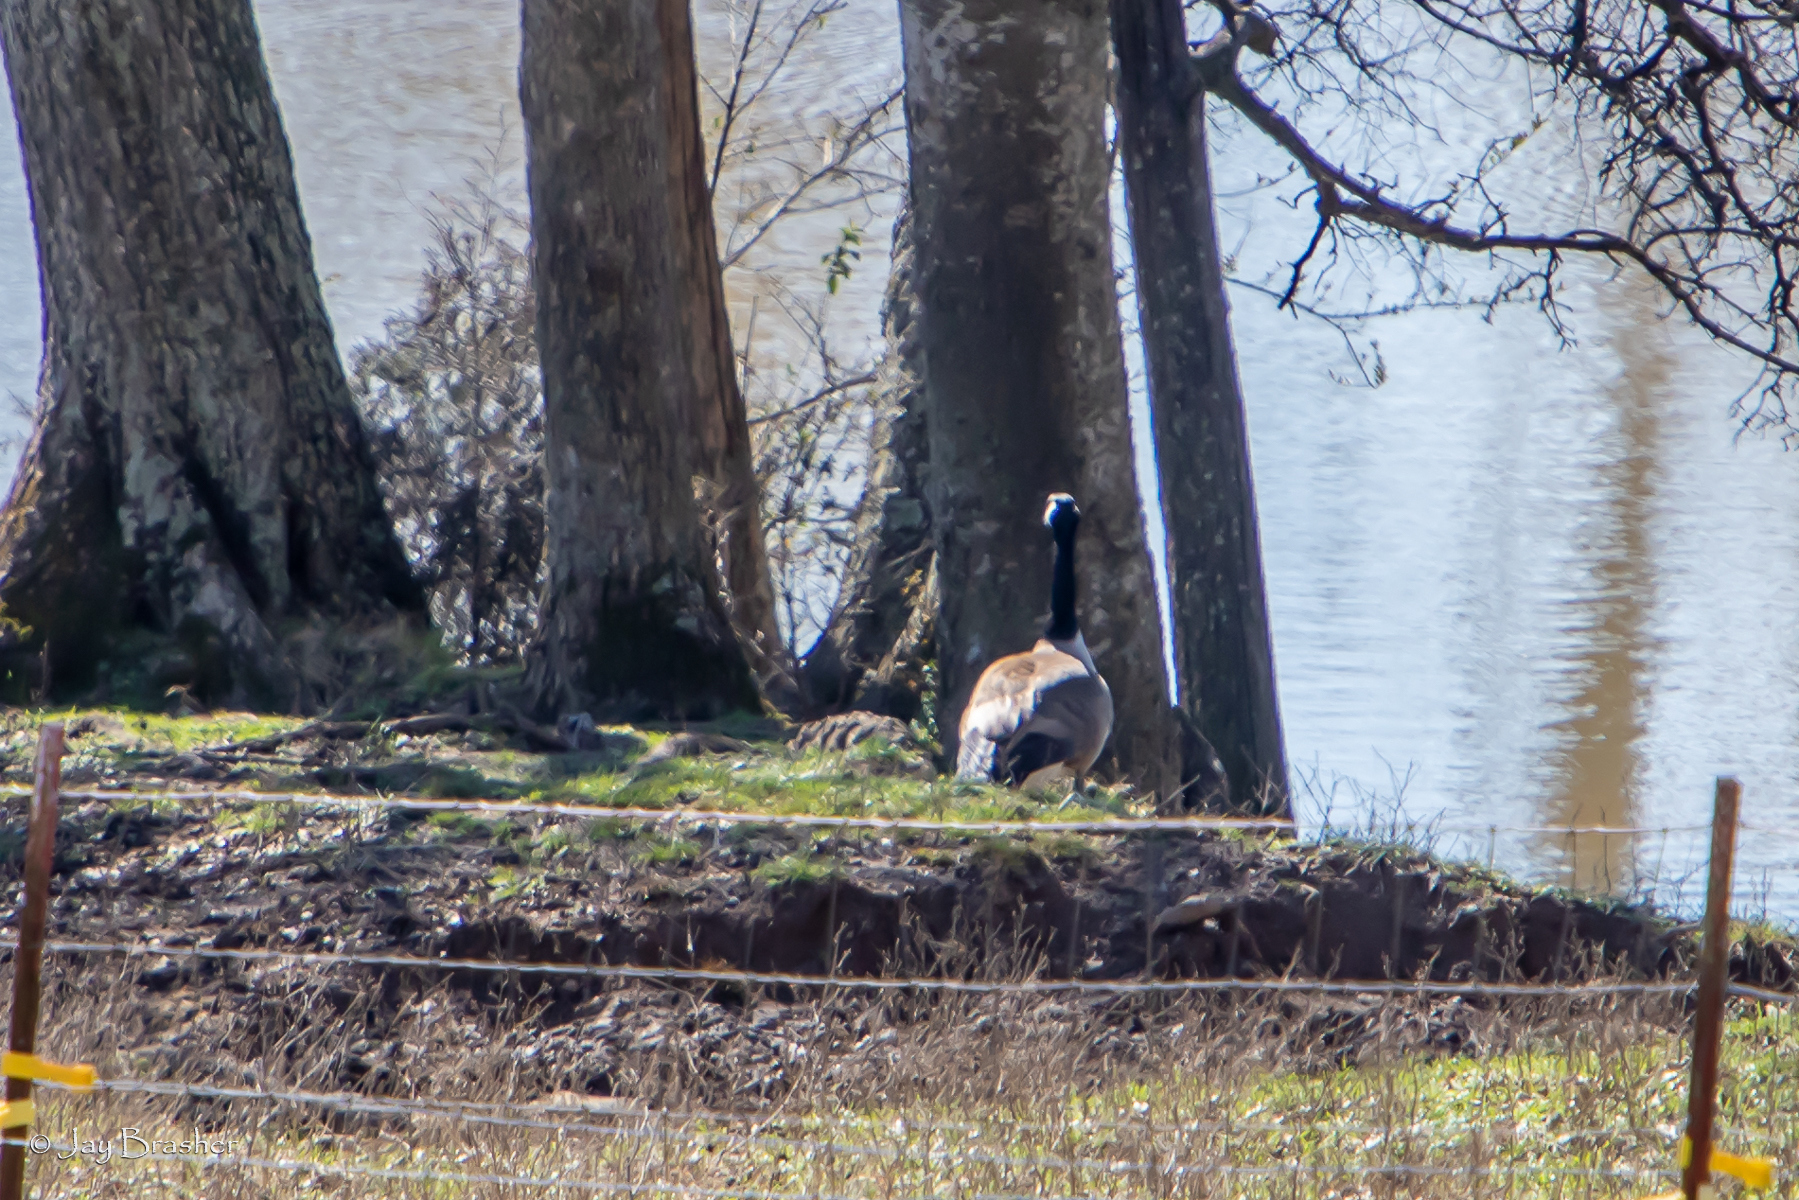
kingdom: Animalia
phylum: Chordata
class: Aves
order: Anseriformes
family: Anatidae
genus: Branta
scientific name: Branta canadensis
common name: Canada goose
